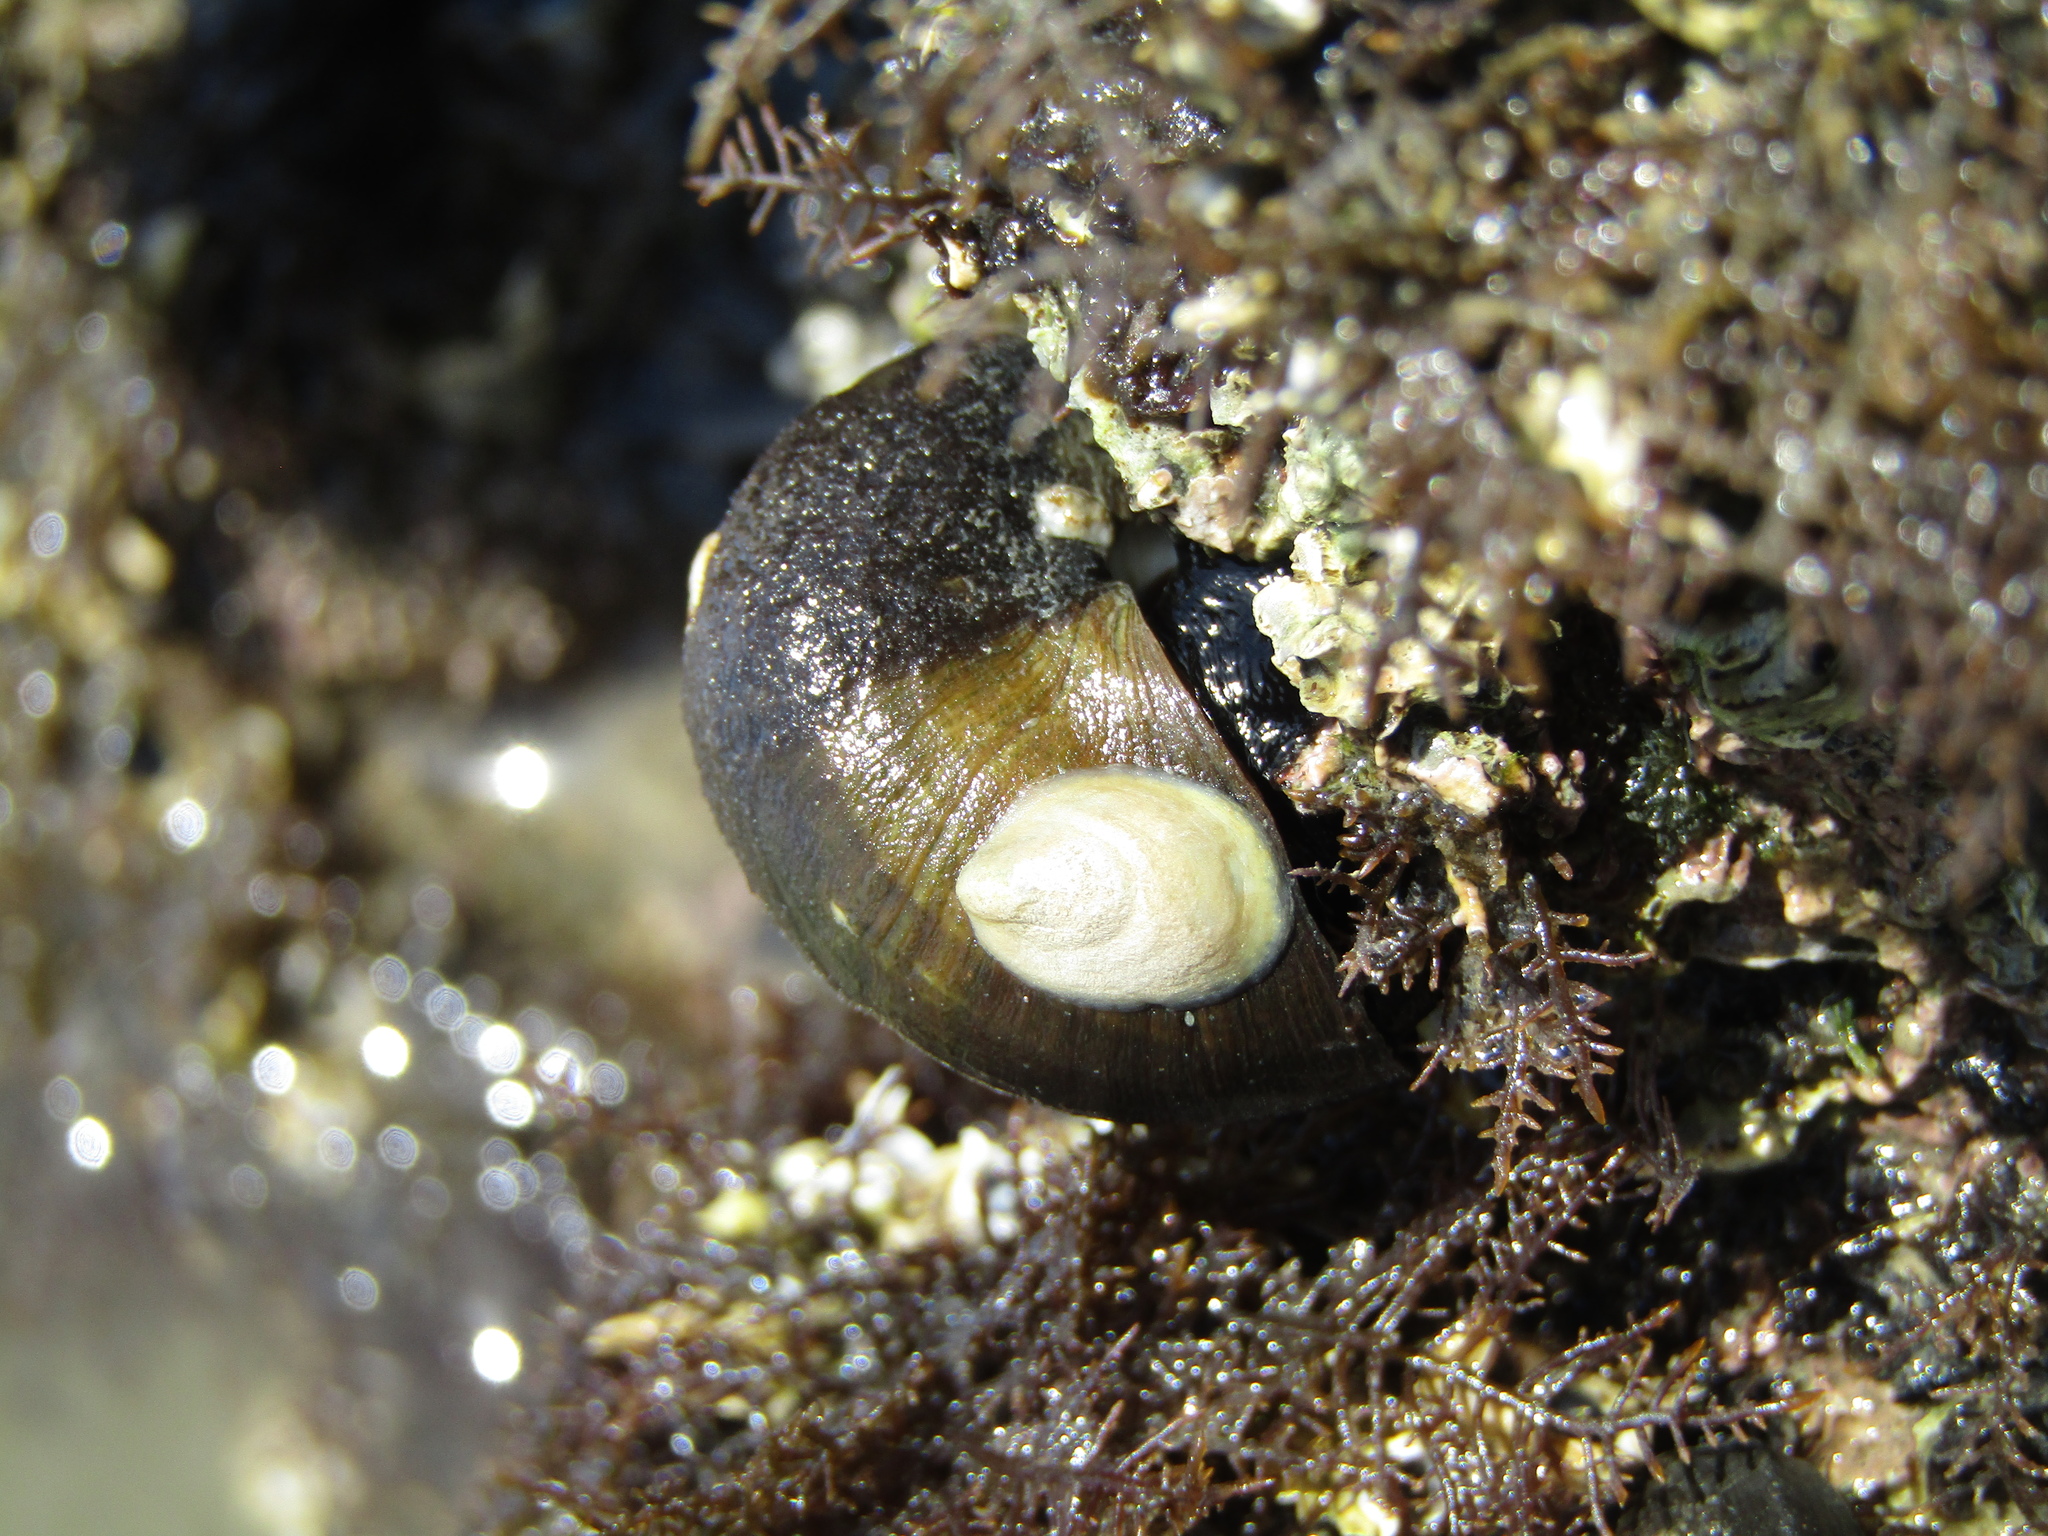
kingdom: Animalia
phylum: Mollusca
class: Gastropoda
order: Littorinimorpha
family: Calyptraeidae
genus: Maoricrypta
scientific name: Maoricrypta monoxyla
